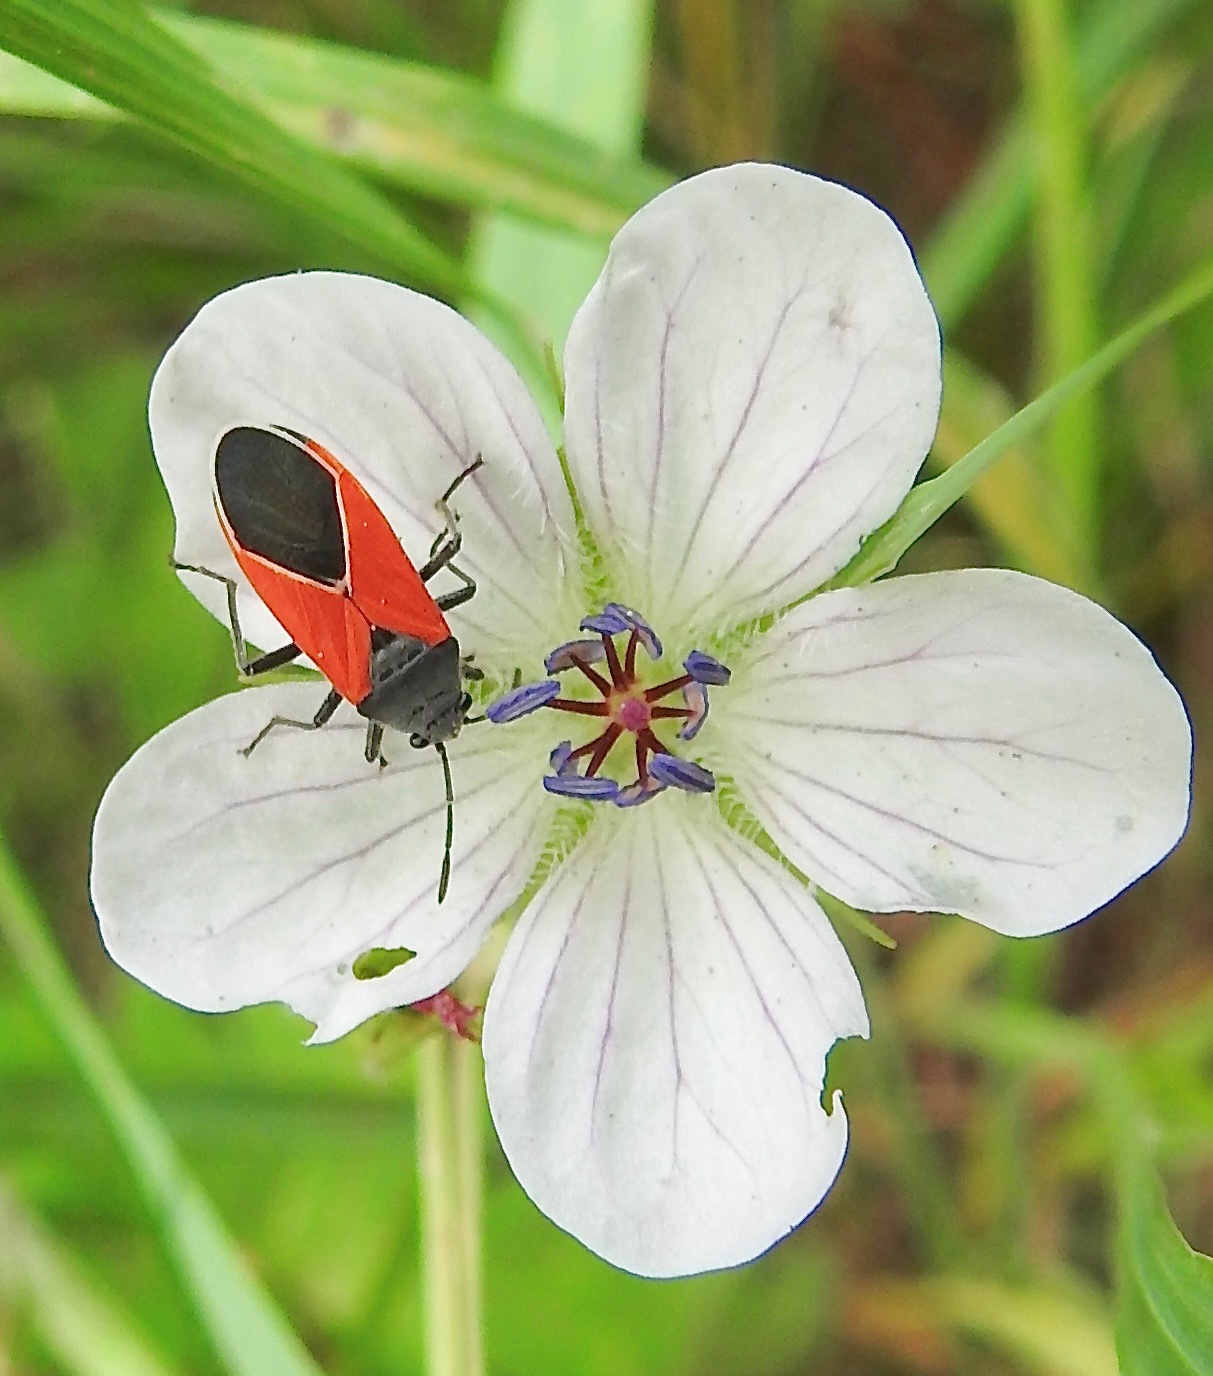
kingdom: Animalia
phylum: Arthropoda
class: Insecta
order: Hemiptera
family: Lygaeidae
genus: Melanopleurus
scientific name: Melanopleurus belfragei
